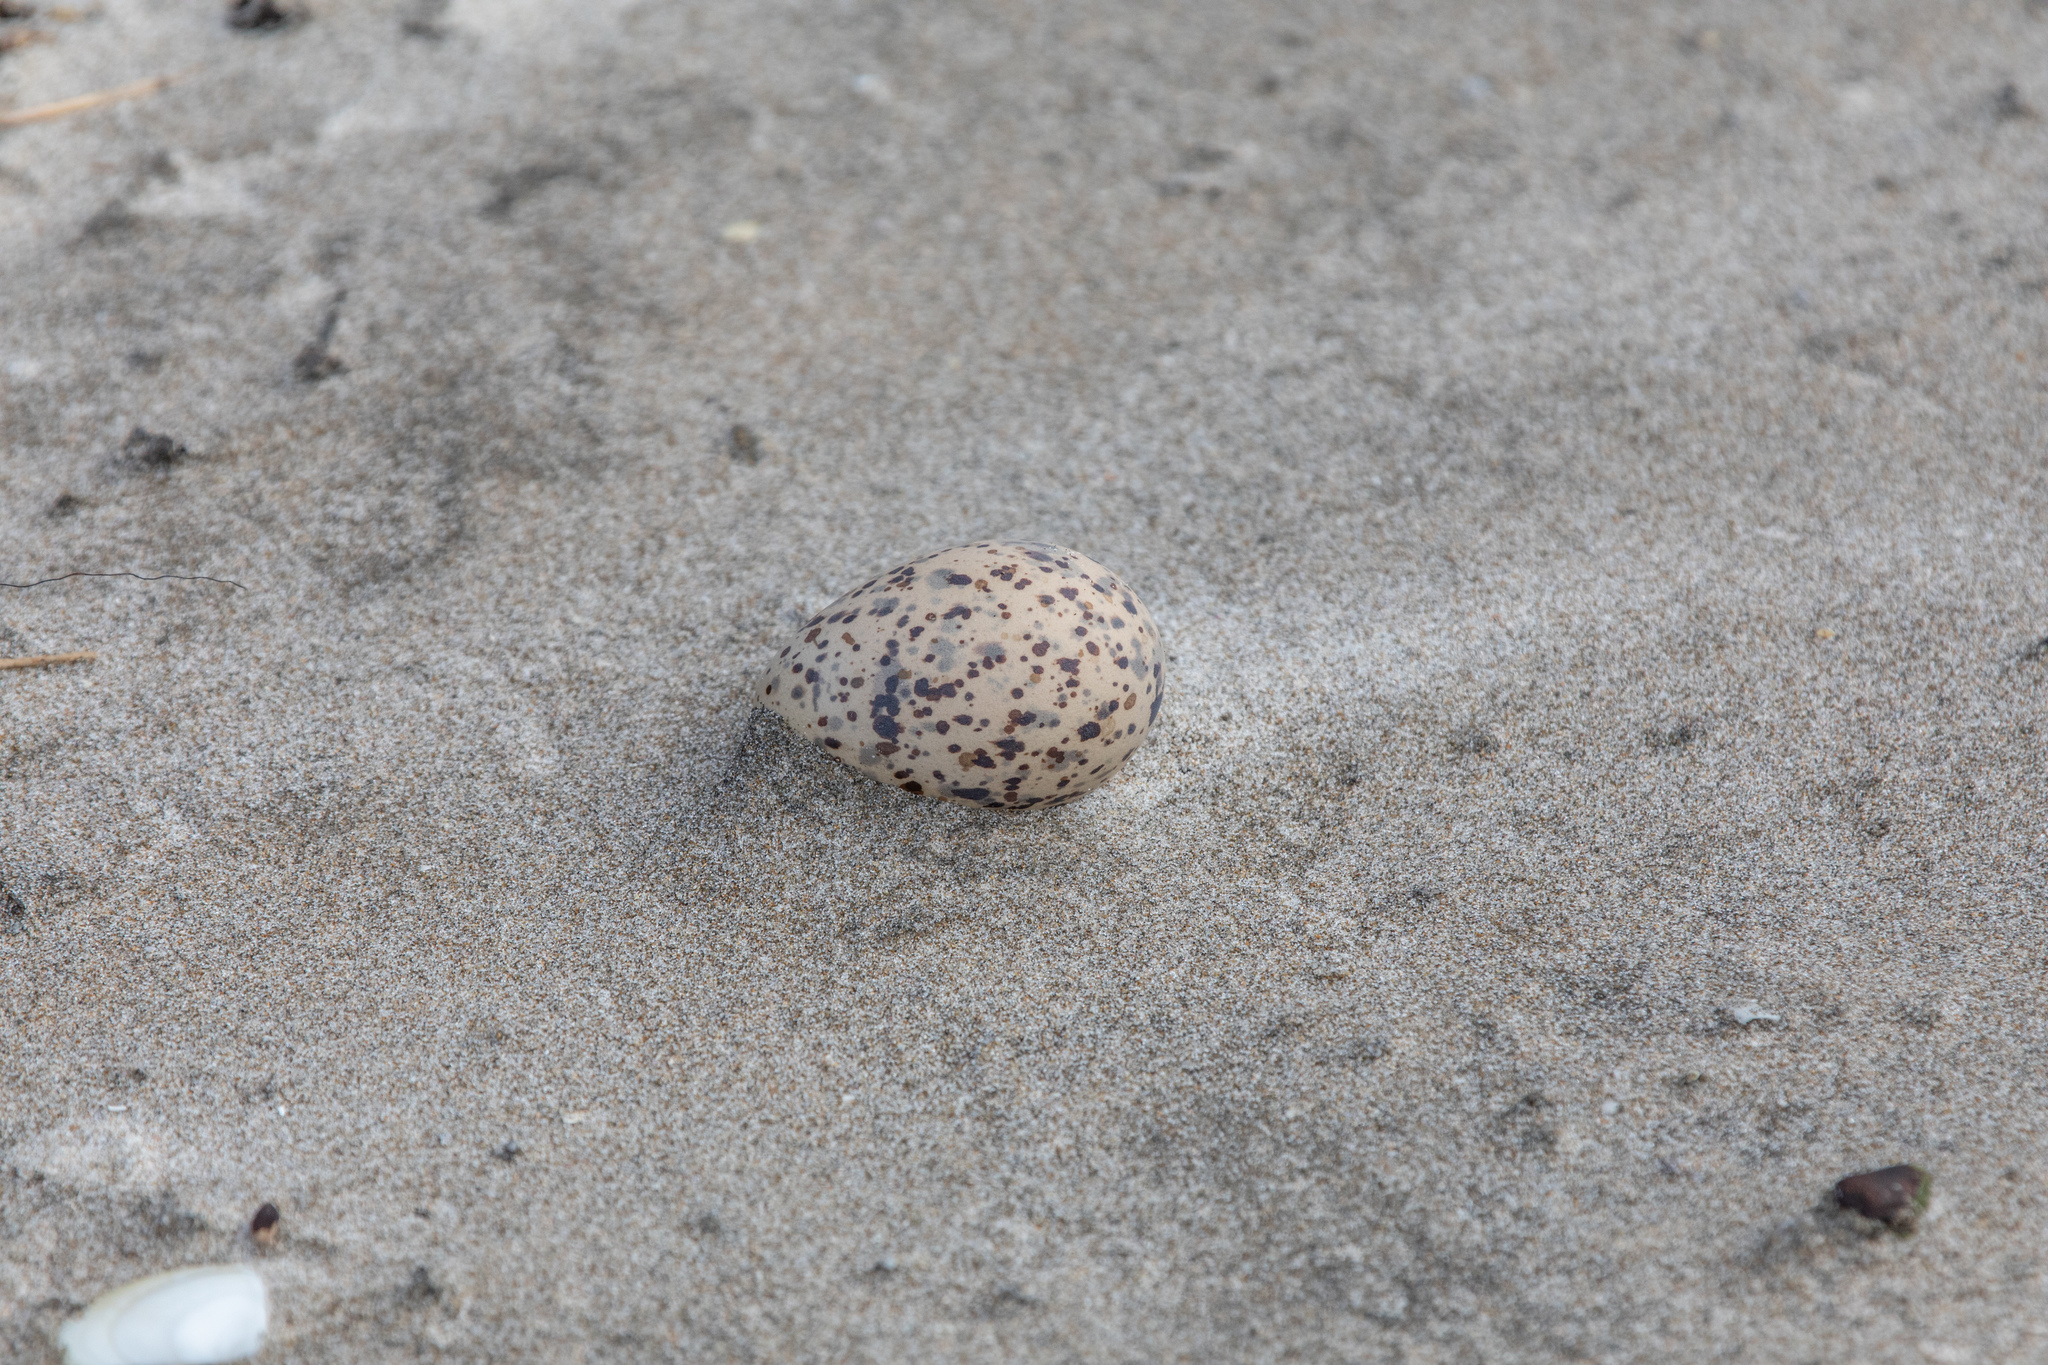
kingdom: Animalia
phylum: Chordata
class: Aves
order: Charadriiformes
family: Haematopodidae
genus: Haematopus
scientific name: Haematopus unicolor
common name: Variable oystercatcher
